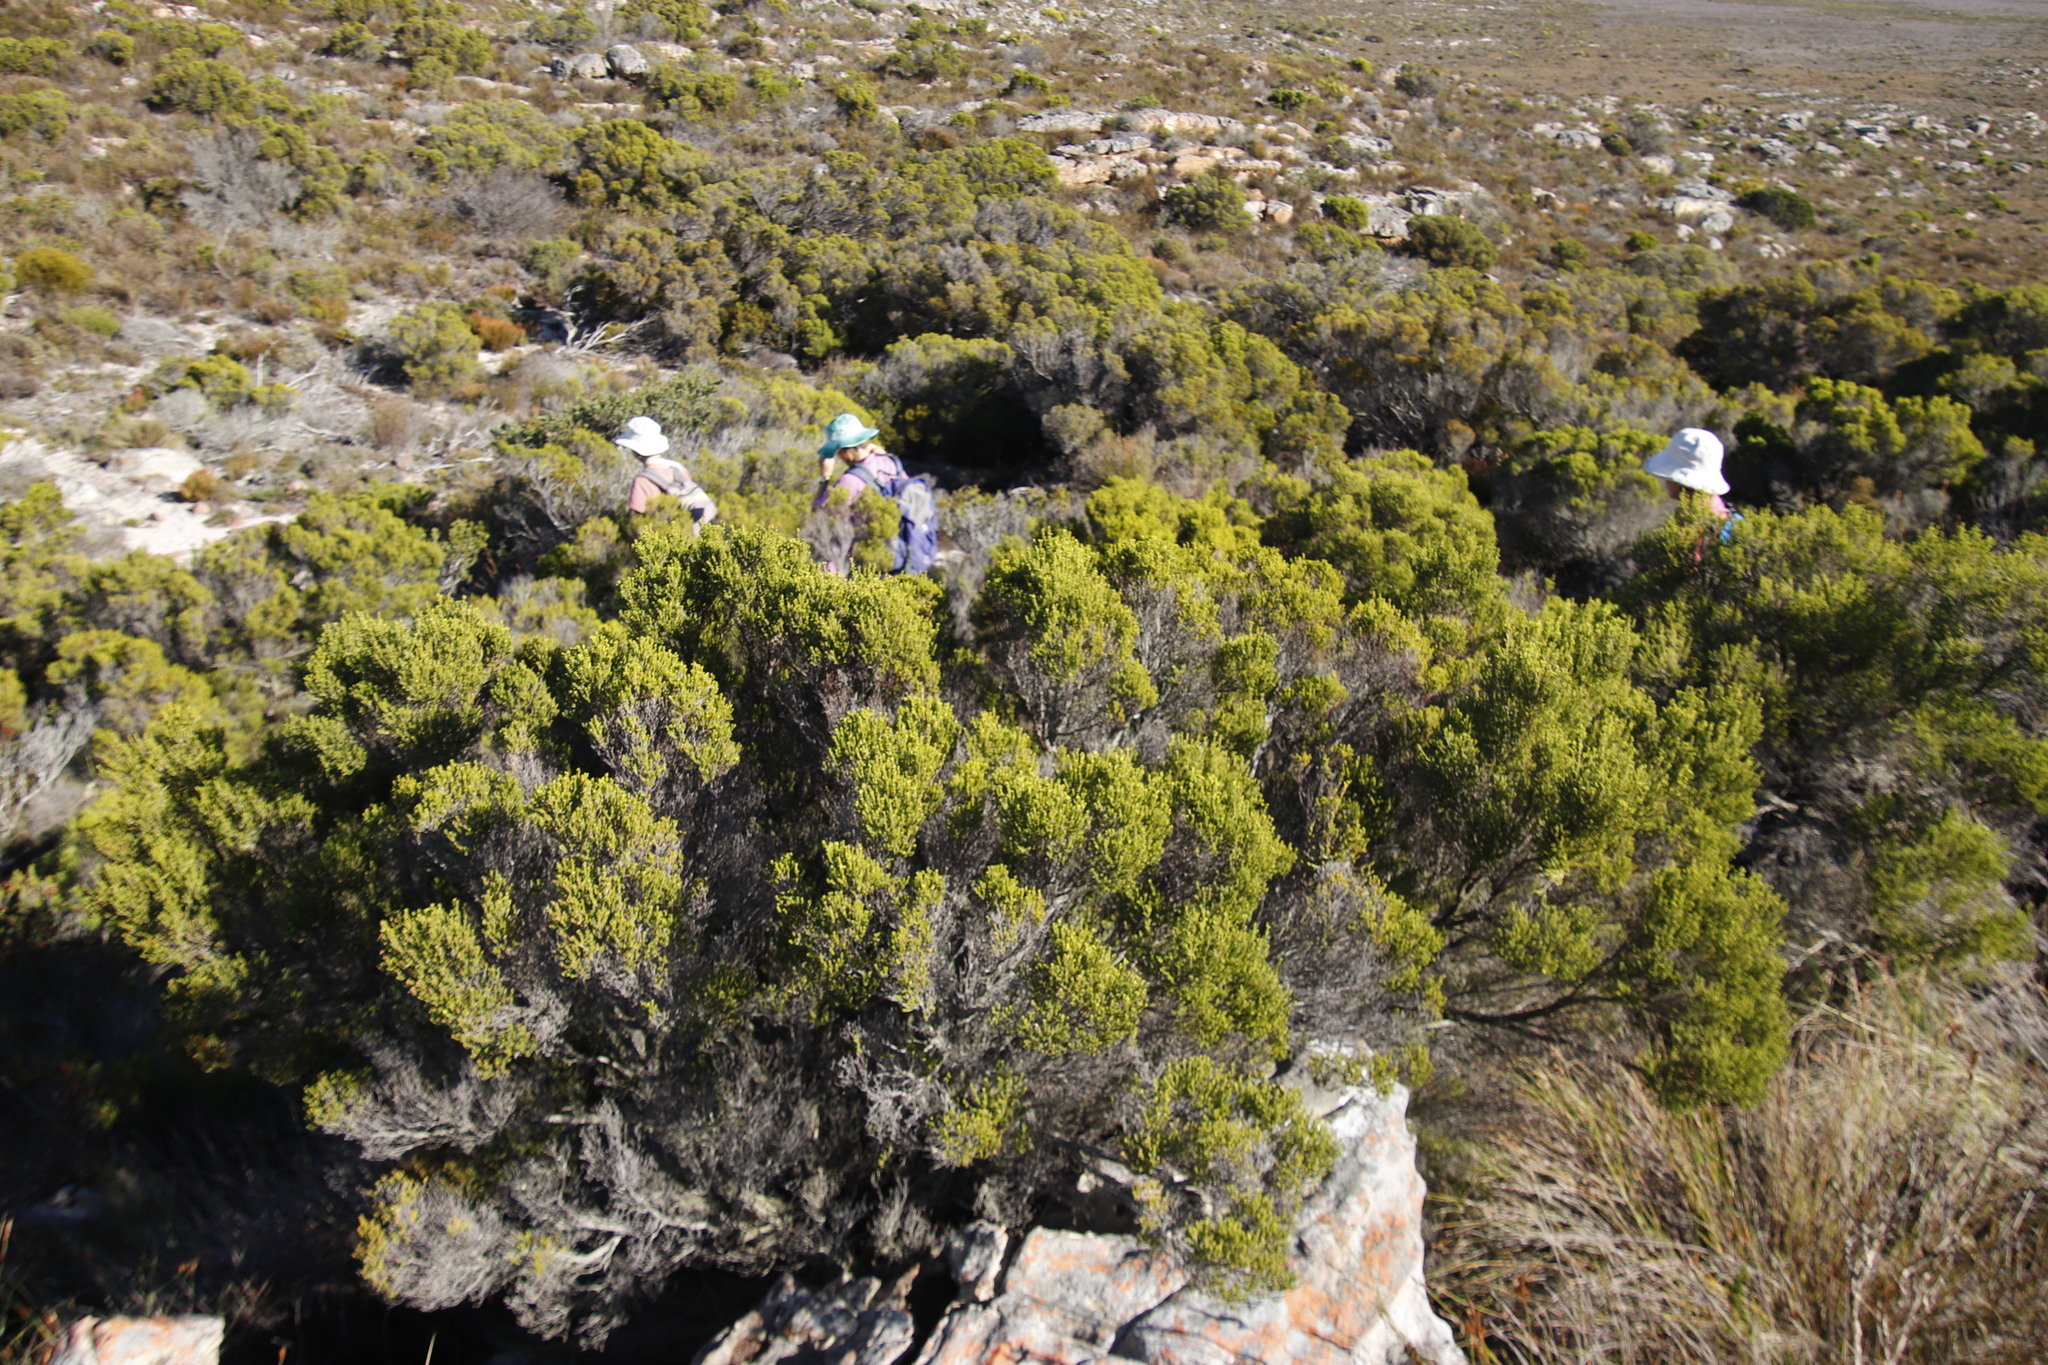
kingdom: Plantae
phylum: Tracheophyta
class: Magnoliopsida
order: Ericales
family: Ericaceae
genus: Erica
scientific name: Erica tristis
